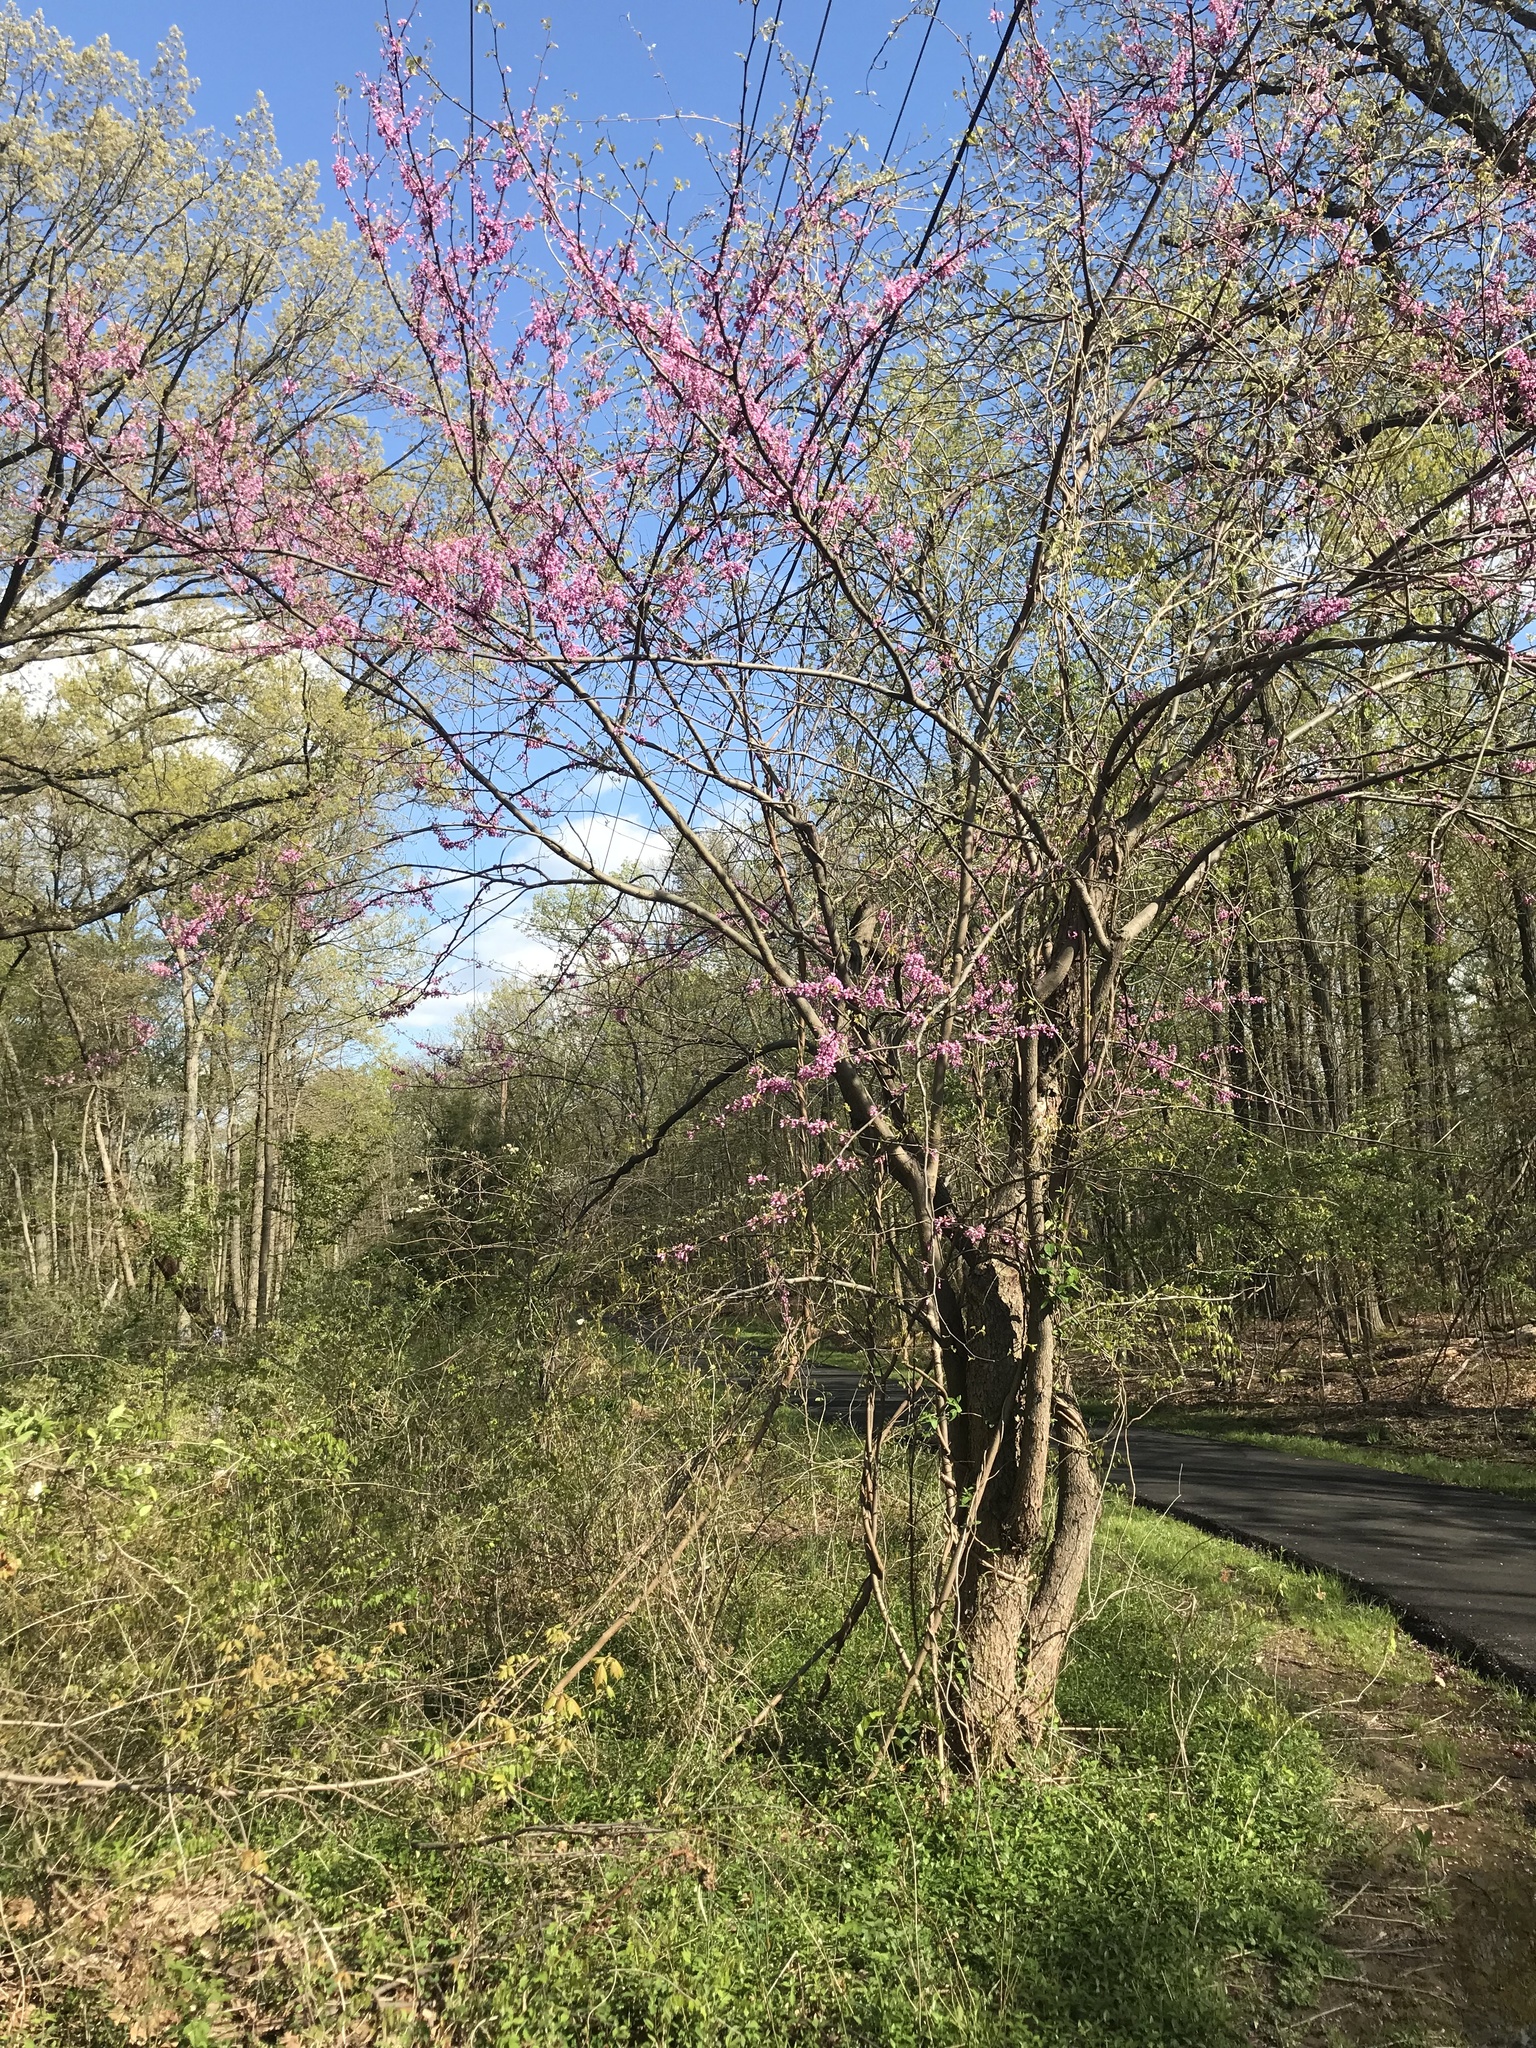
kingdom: Plantae
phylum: Tracheophyta
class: Magnoliopsida
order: Fabales
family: Fabaceae
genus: Cercis
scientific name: Cercis canadensis
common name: Eastern redbud
